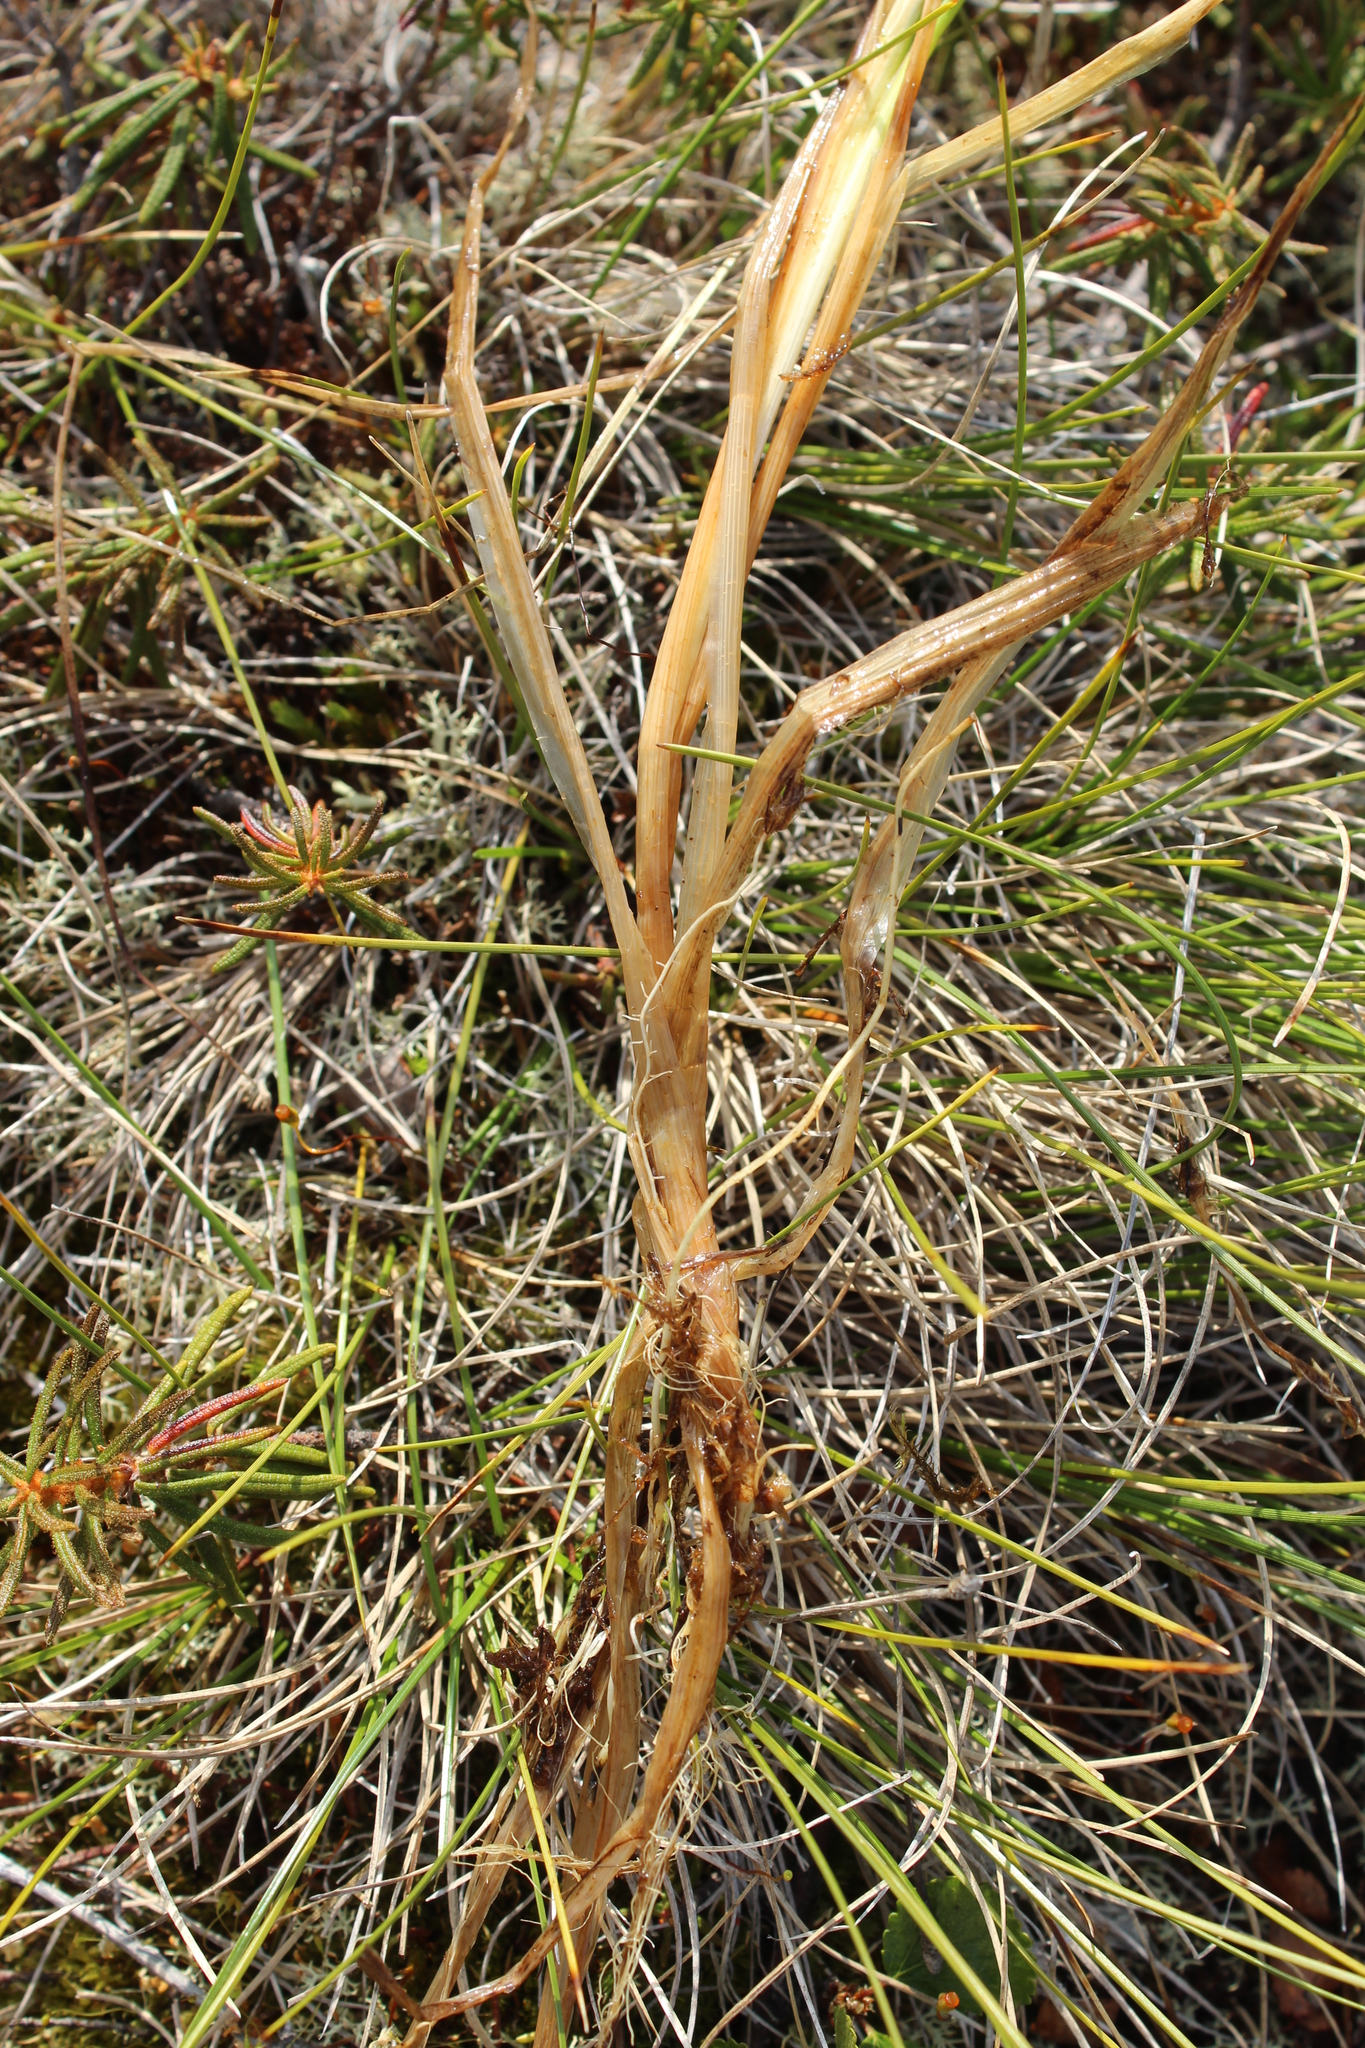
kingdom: Plantae
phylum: Tracheophyta
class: Liliopsida
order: Poales
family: Cyperaceae
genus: Carex
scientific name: Carex rotundata
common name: Round-fruited sedge
